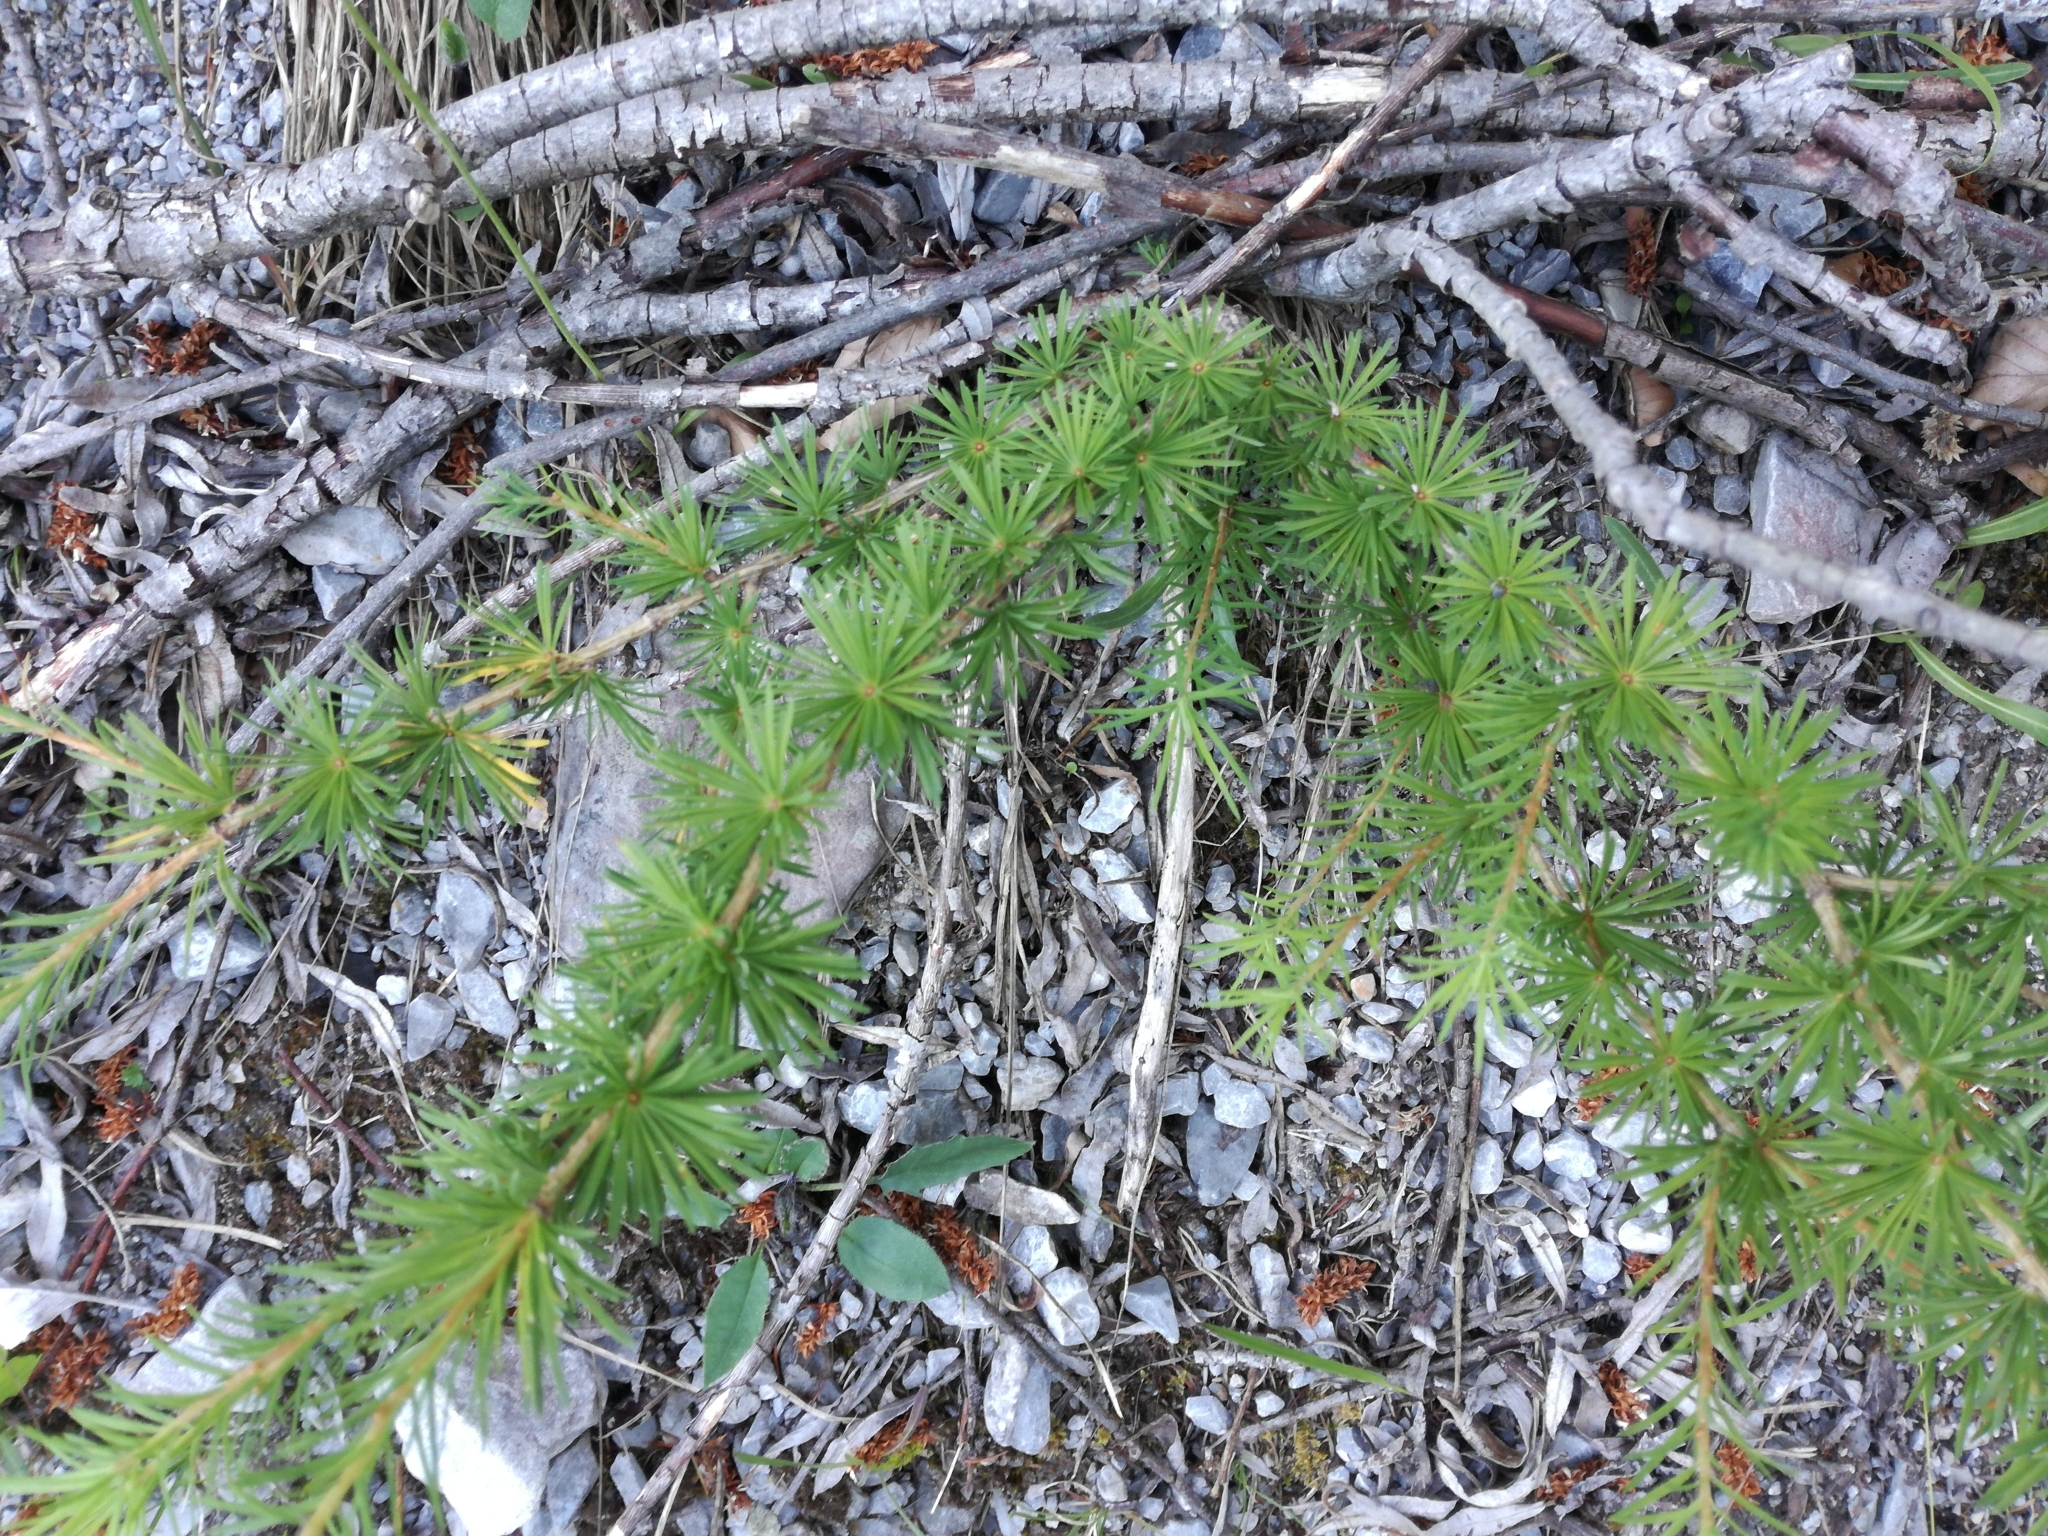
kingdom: Plantae
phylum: Tracheophyta
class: Pinopsida
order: Pinales
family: Pinaceae
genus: Larix
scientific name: Larix decidua
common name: European larch
